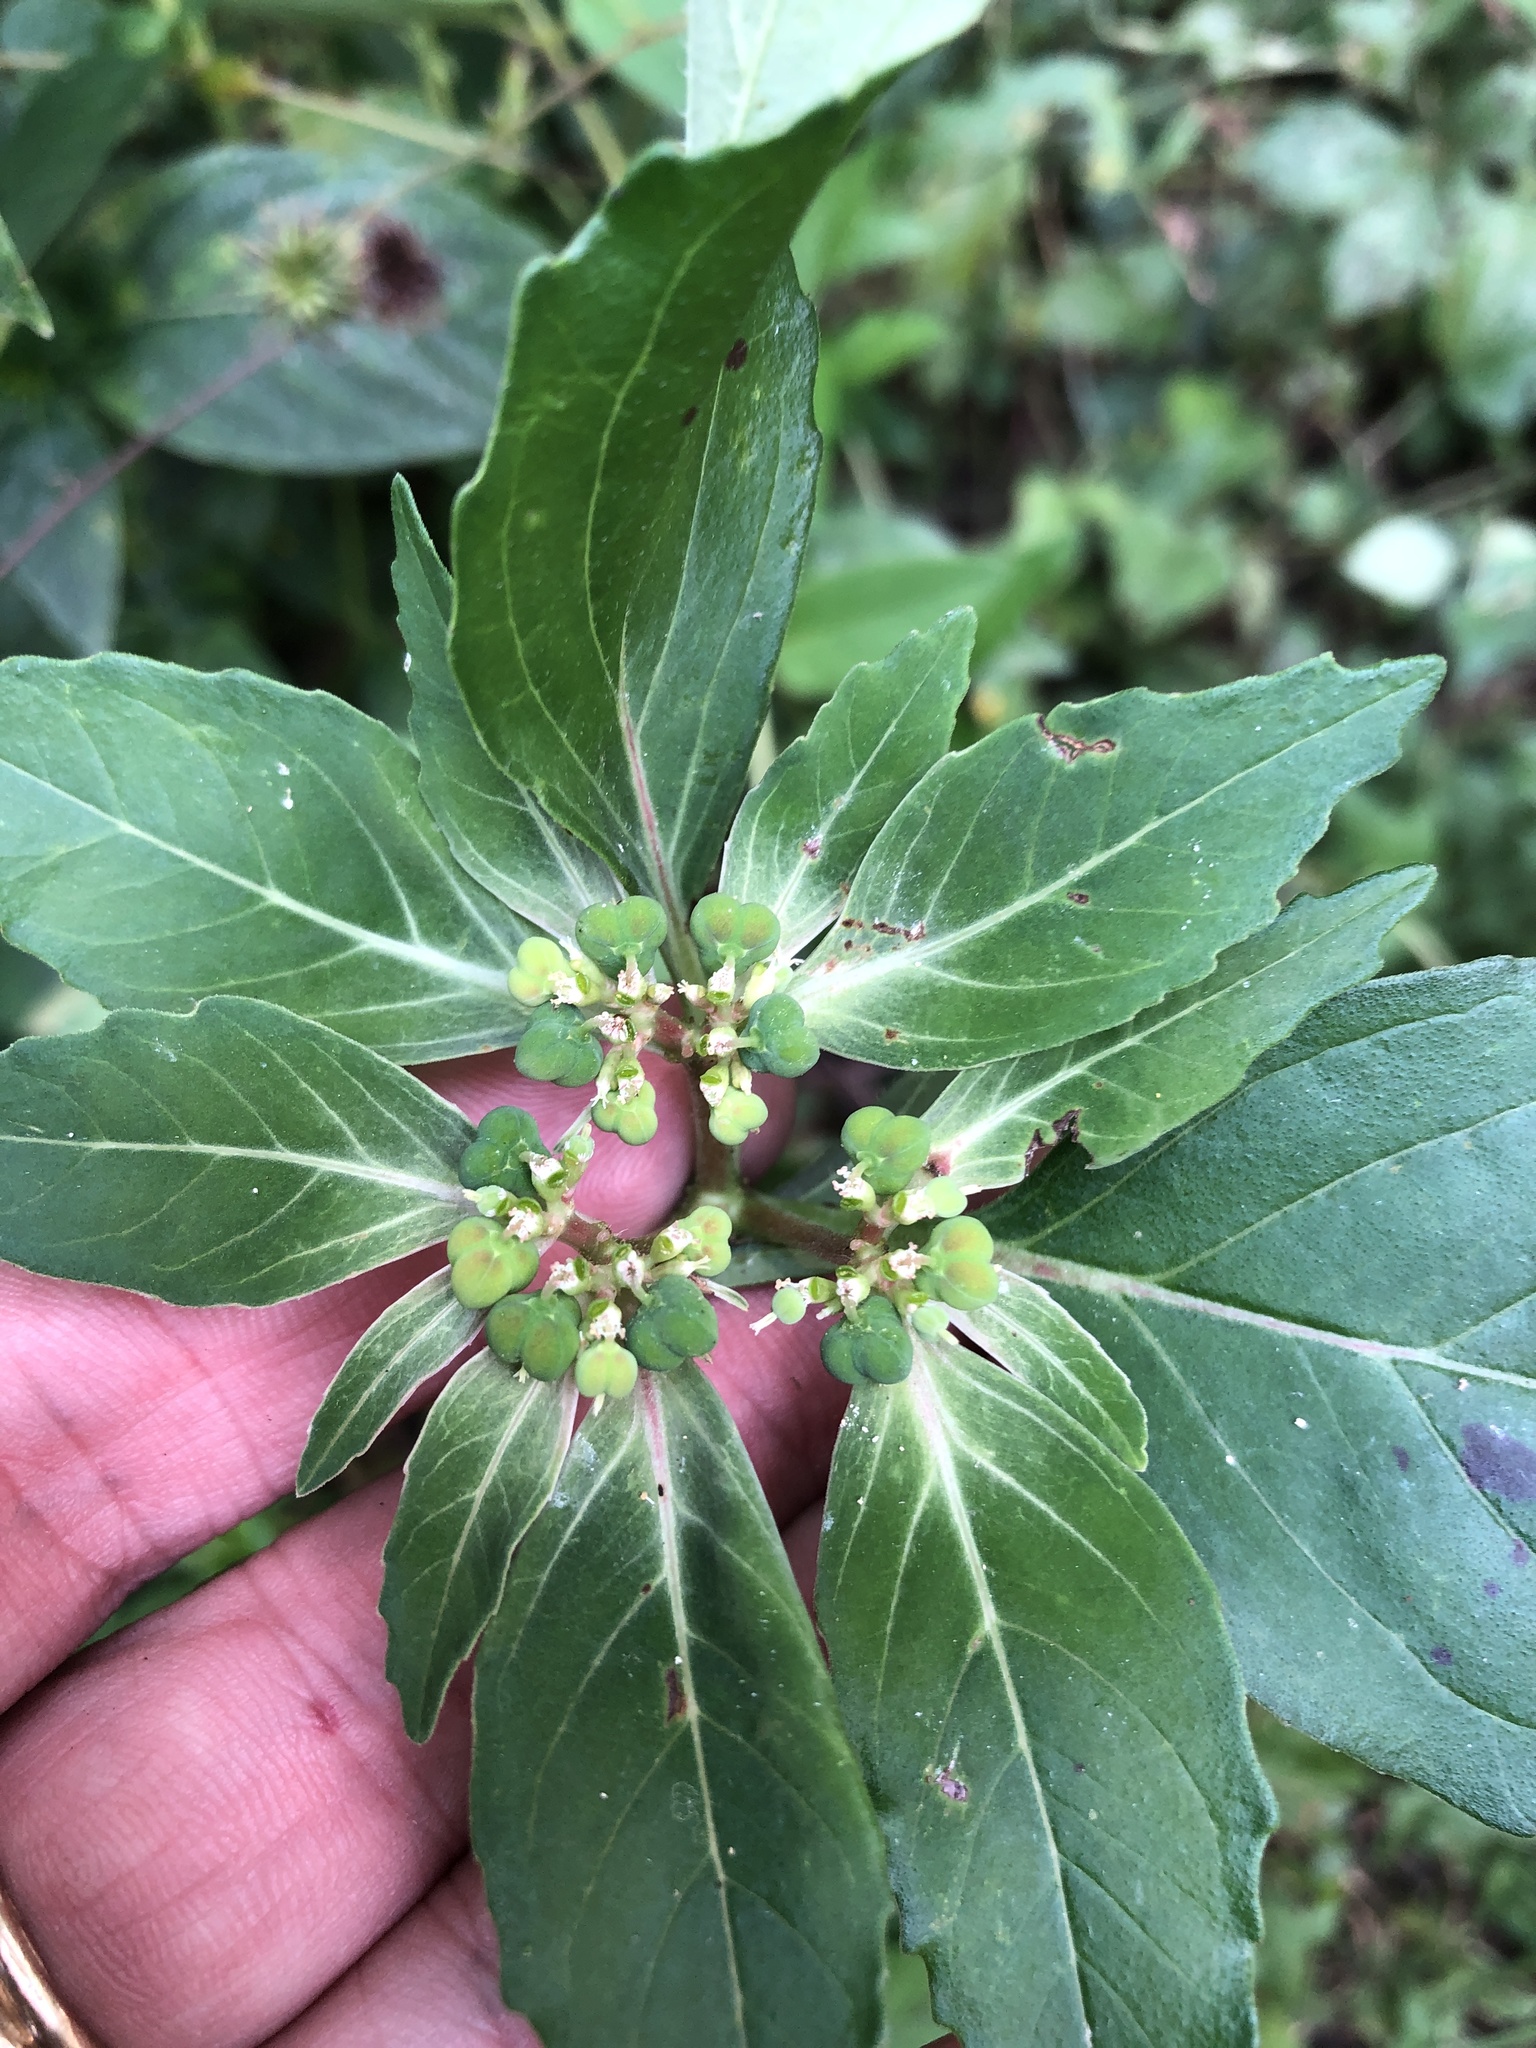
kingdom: Plantae
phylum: Tracheophyta
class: Magnoliopsida
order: Malpighiales
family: Euphorbiaceae
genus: Euphorbia
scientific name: Euphorbia
